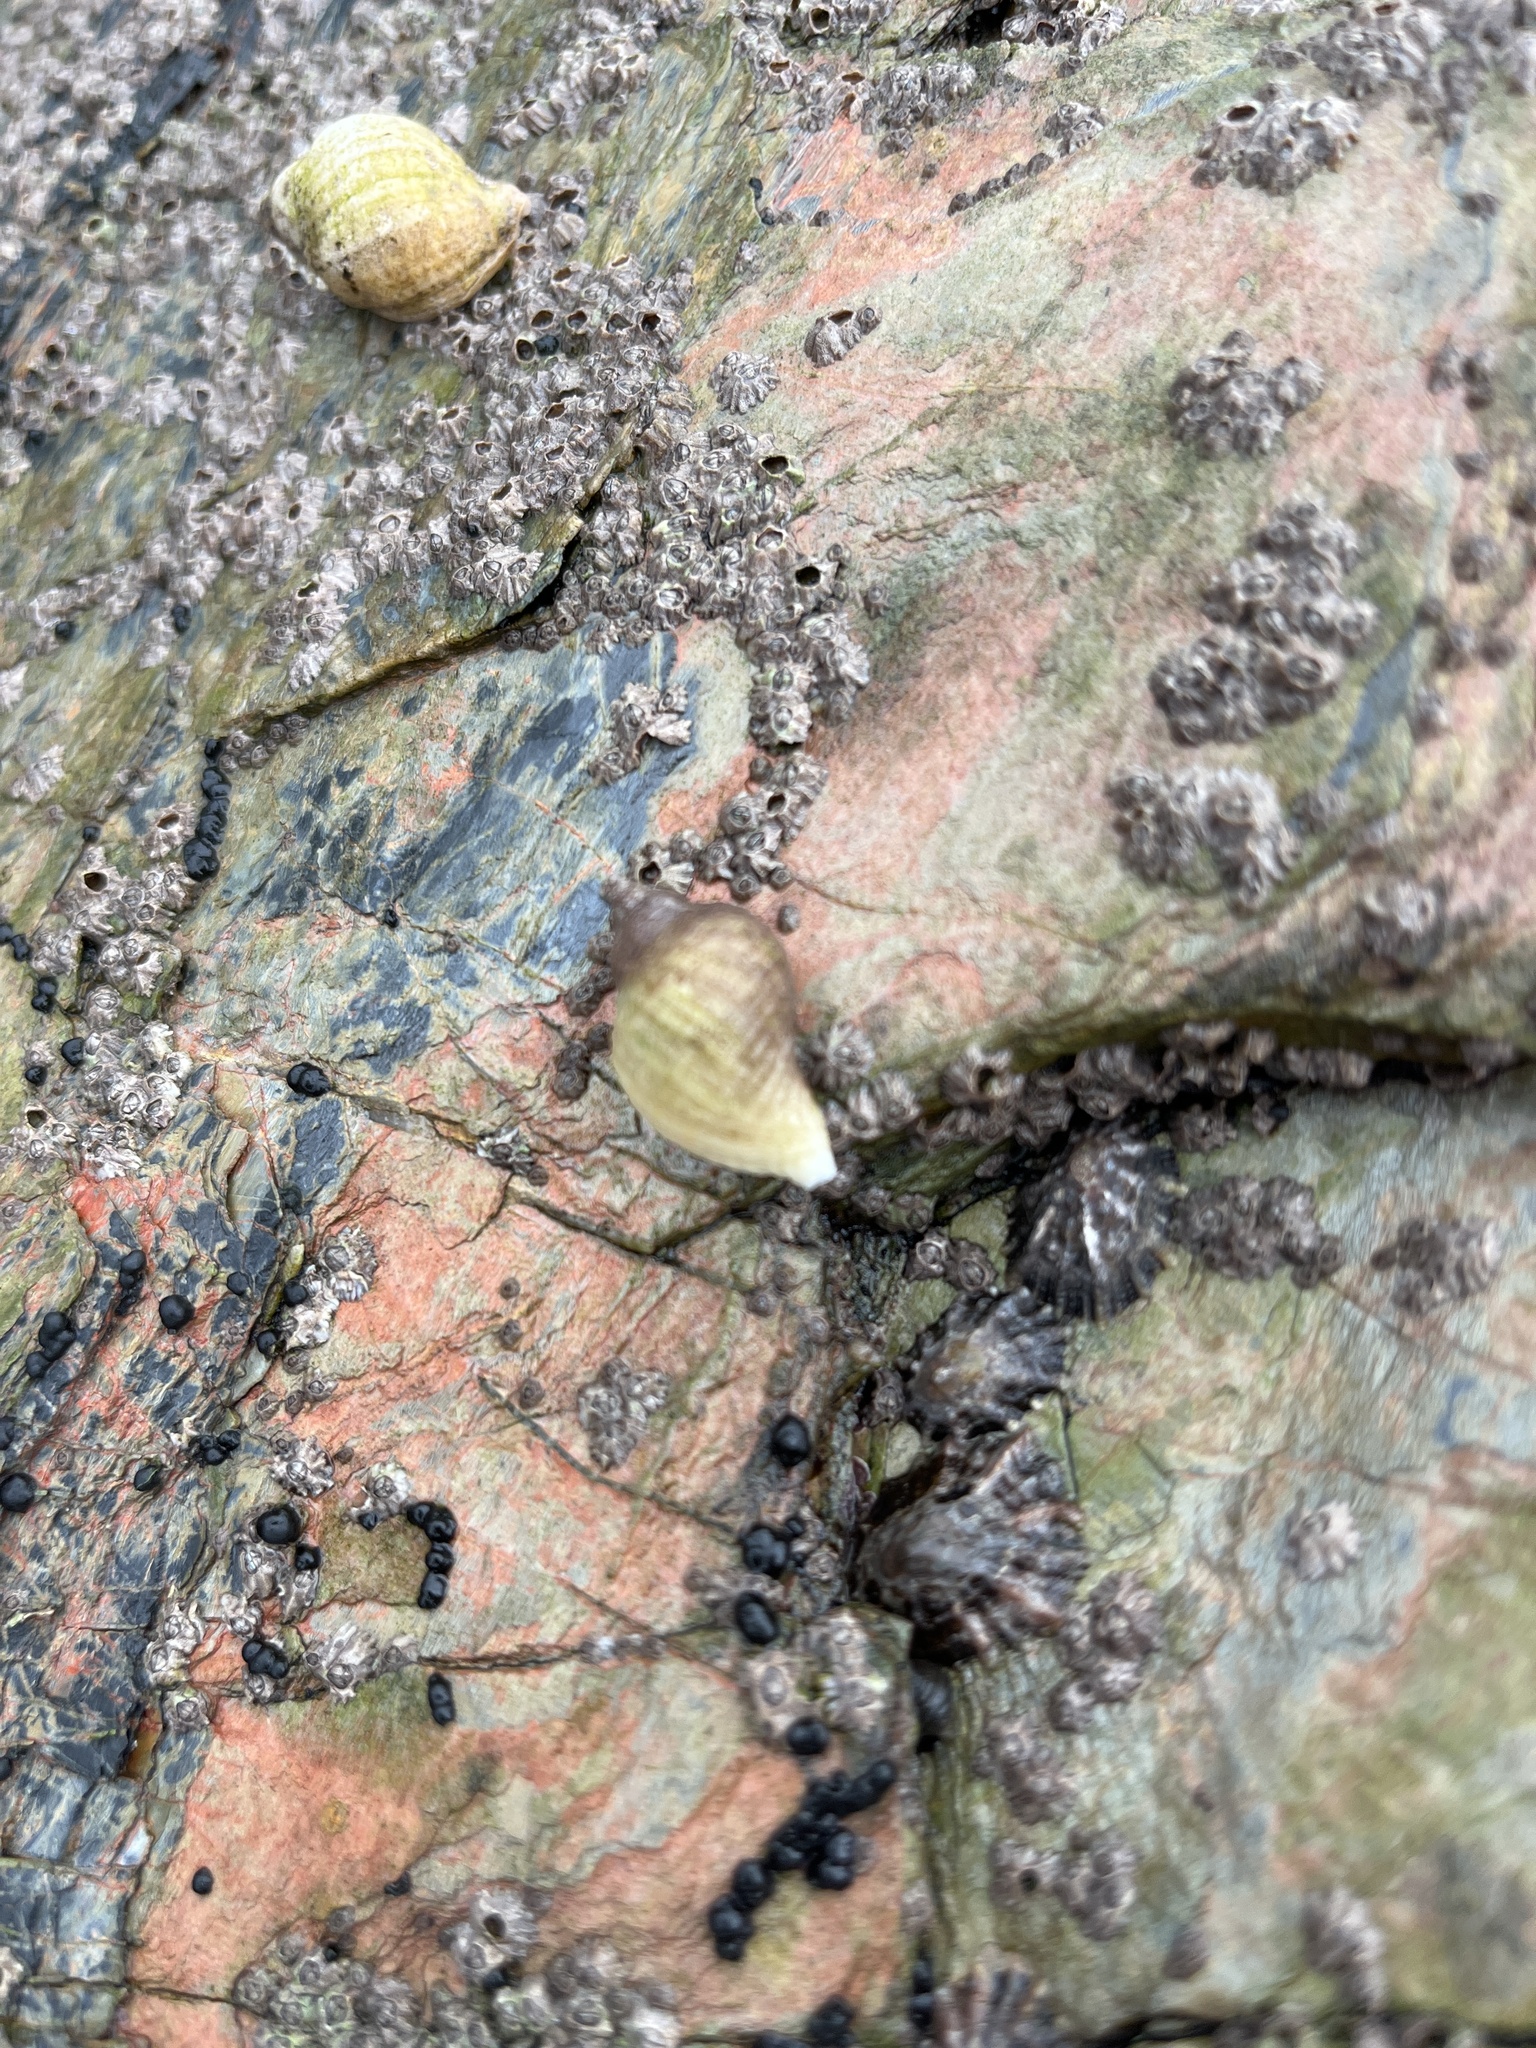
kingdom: Animalia
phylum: Mollusca
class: Gastropoda
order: Neogastropoda
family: Muricidae
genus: Nucella
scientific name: Nucella lapillus
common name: Dog whelk
